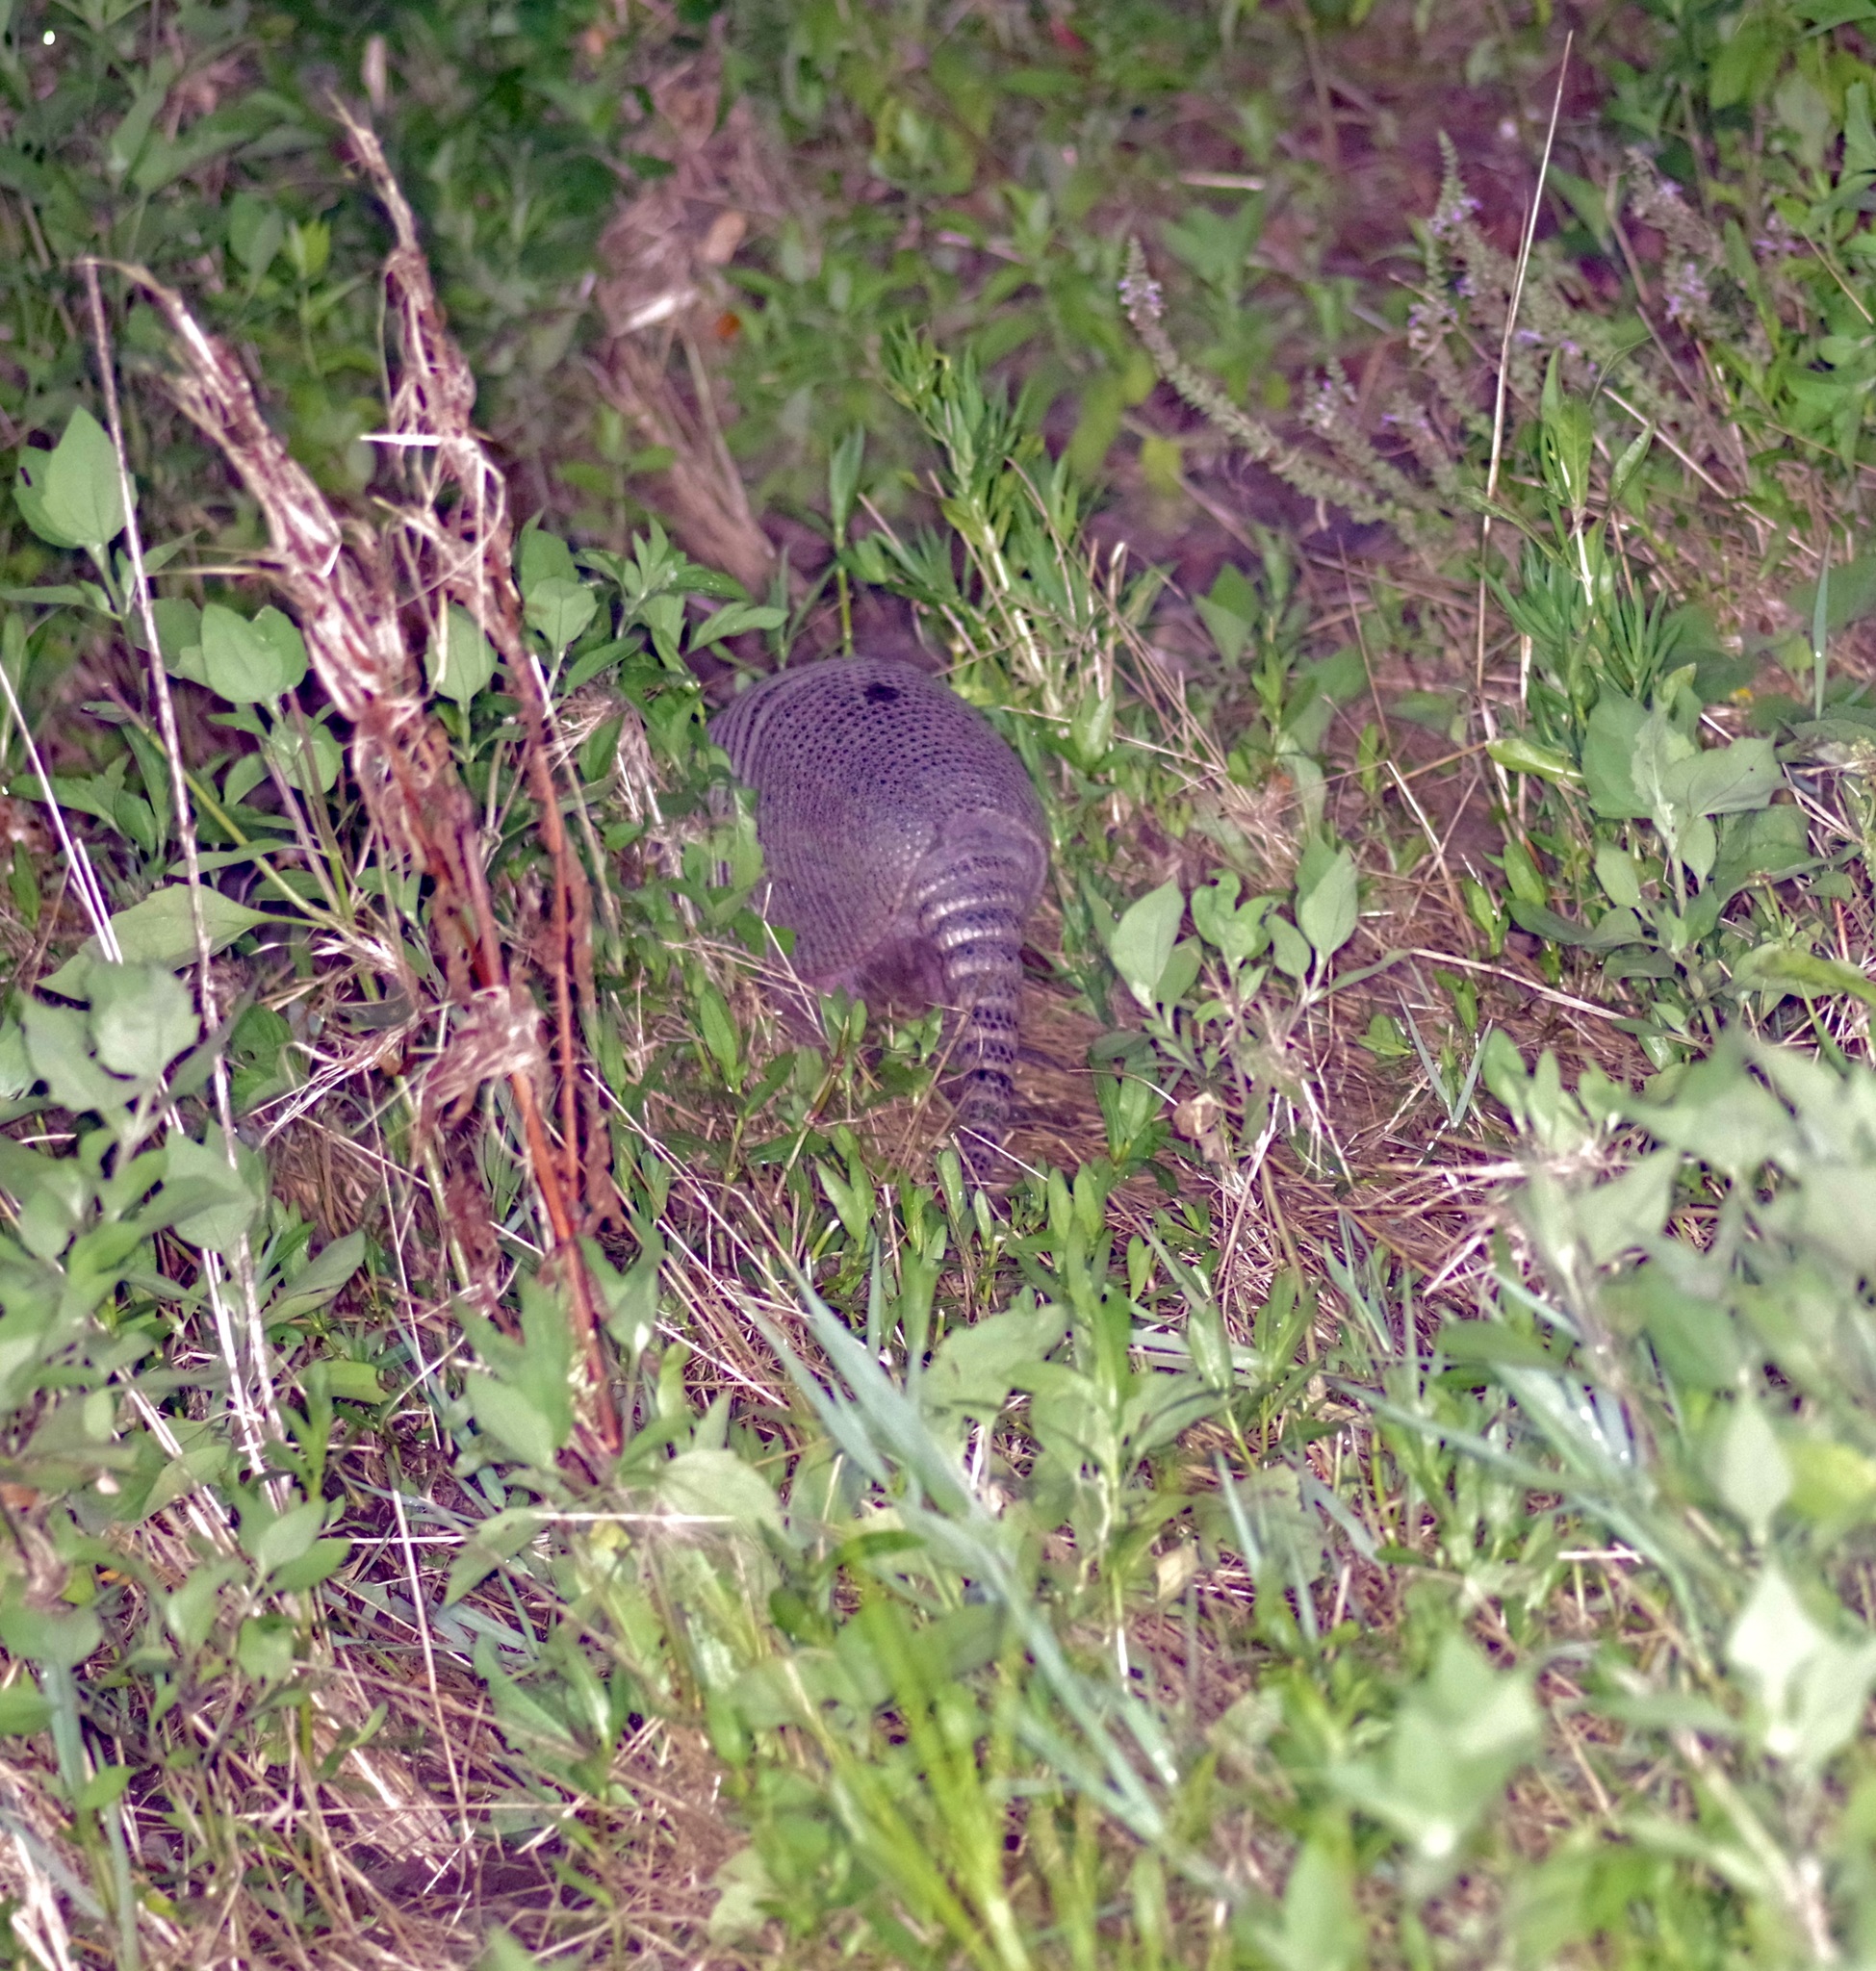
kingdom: Animalia
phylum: Chordata
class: Mammalia
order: Cingulata
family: Dasypodidae
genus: Dasypus
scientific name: Dasypus novemcinctus
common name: Nine-banded armadillo
